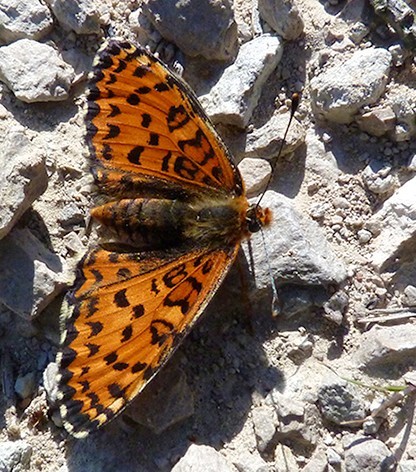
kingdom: Animalia
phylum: Arthropoda
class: Insecta
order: Lepidoptera
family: Nymphalidae
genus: Melitaea
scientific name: Melitaea trivia
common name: Lesser spotted fritillary
